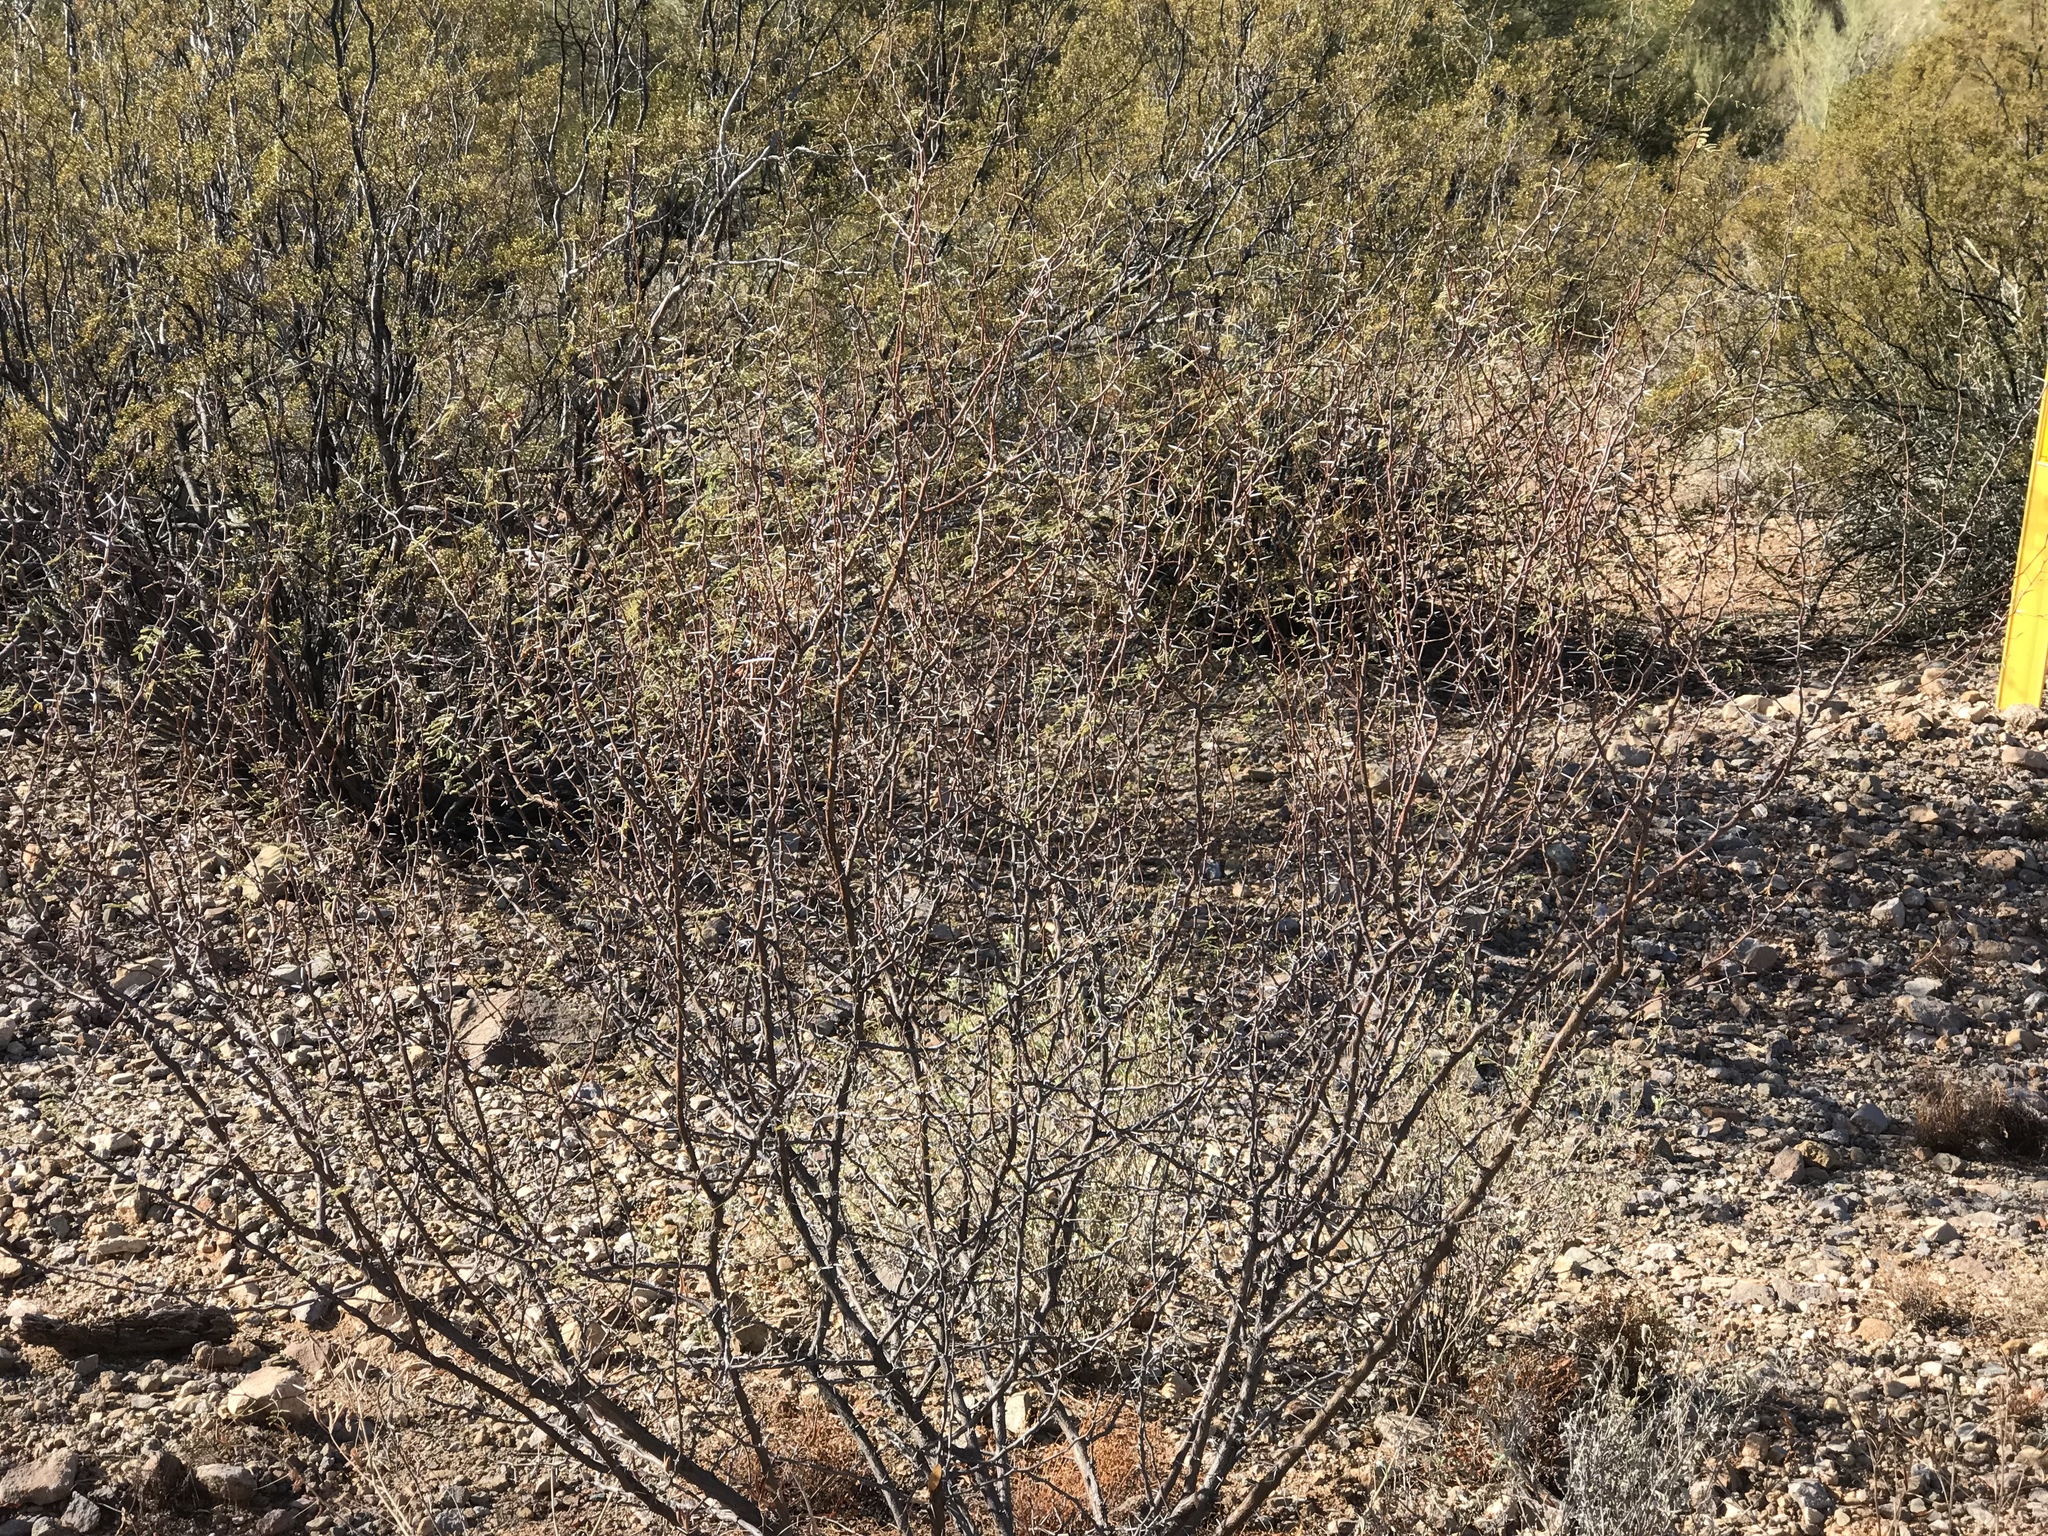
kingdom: Plantae
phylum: Tracheophyta
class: Magnoliopsida
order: Fabales
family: Fabaceae
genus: Vachellia
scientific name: Vachellia constricta
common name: Mescat acacia
